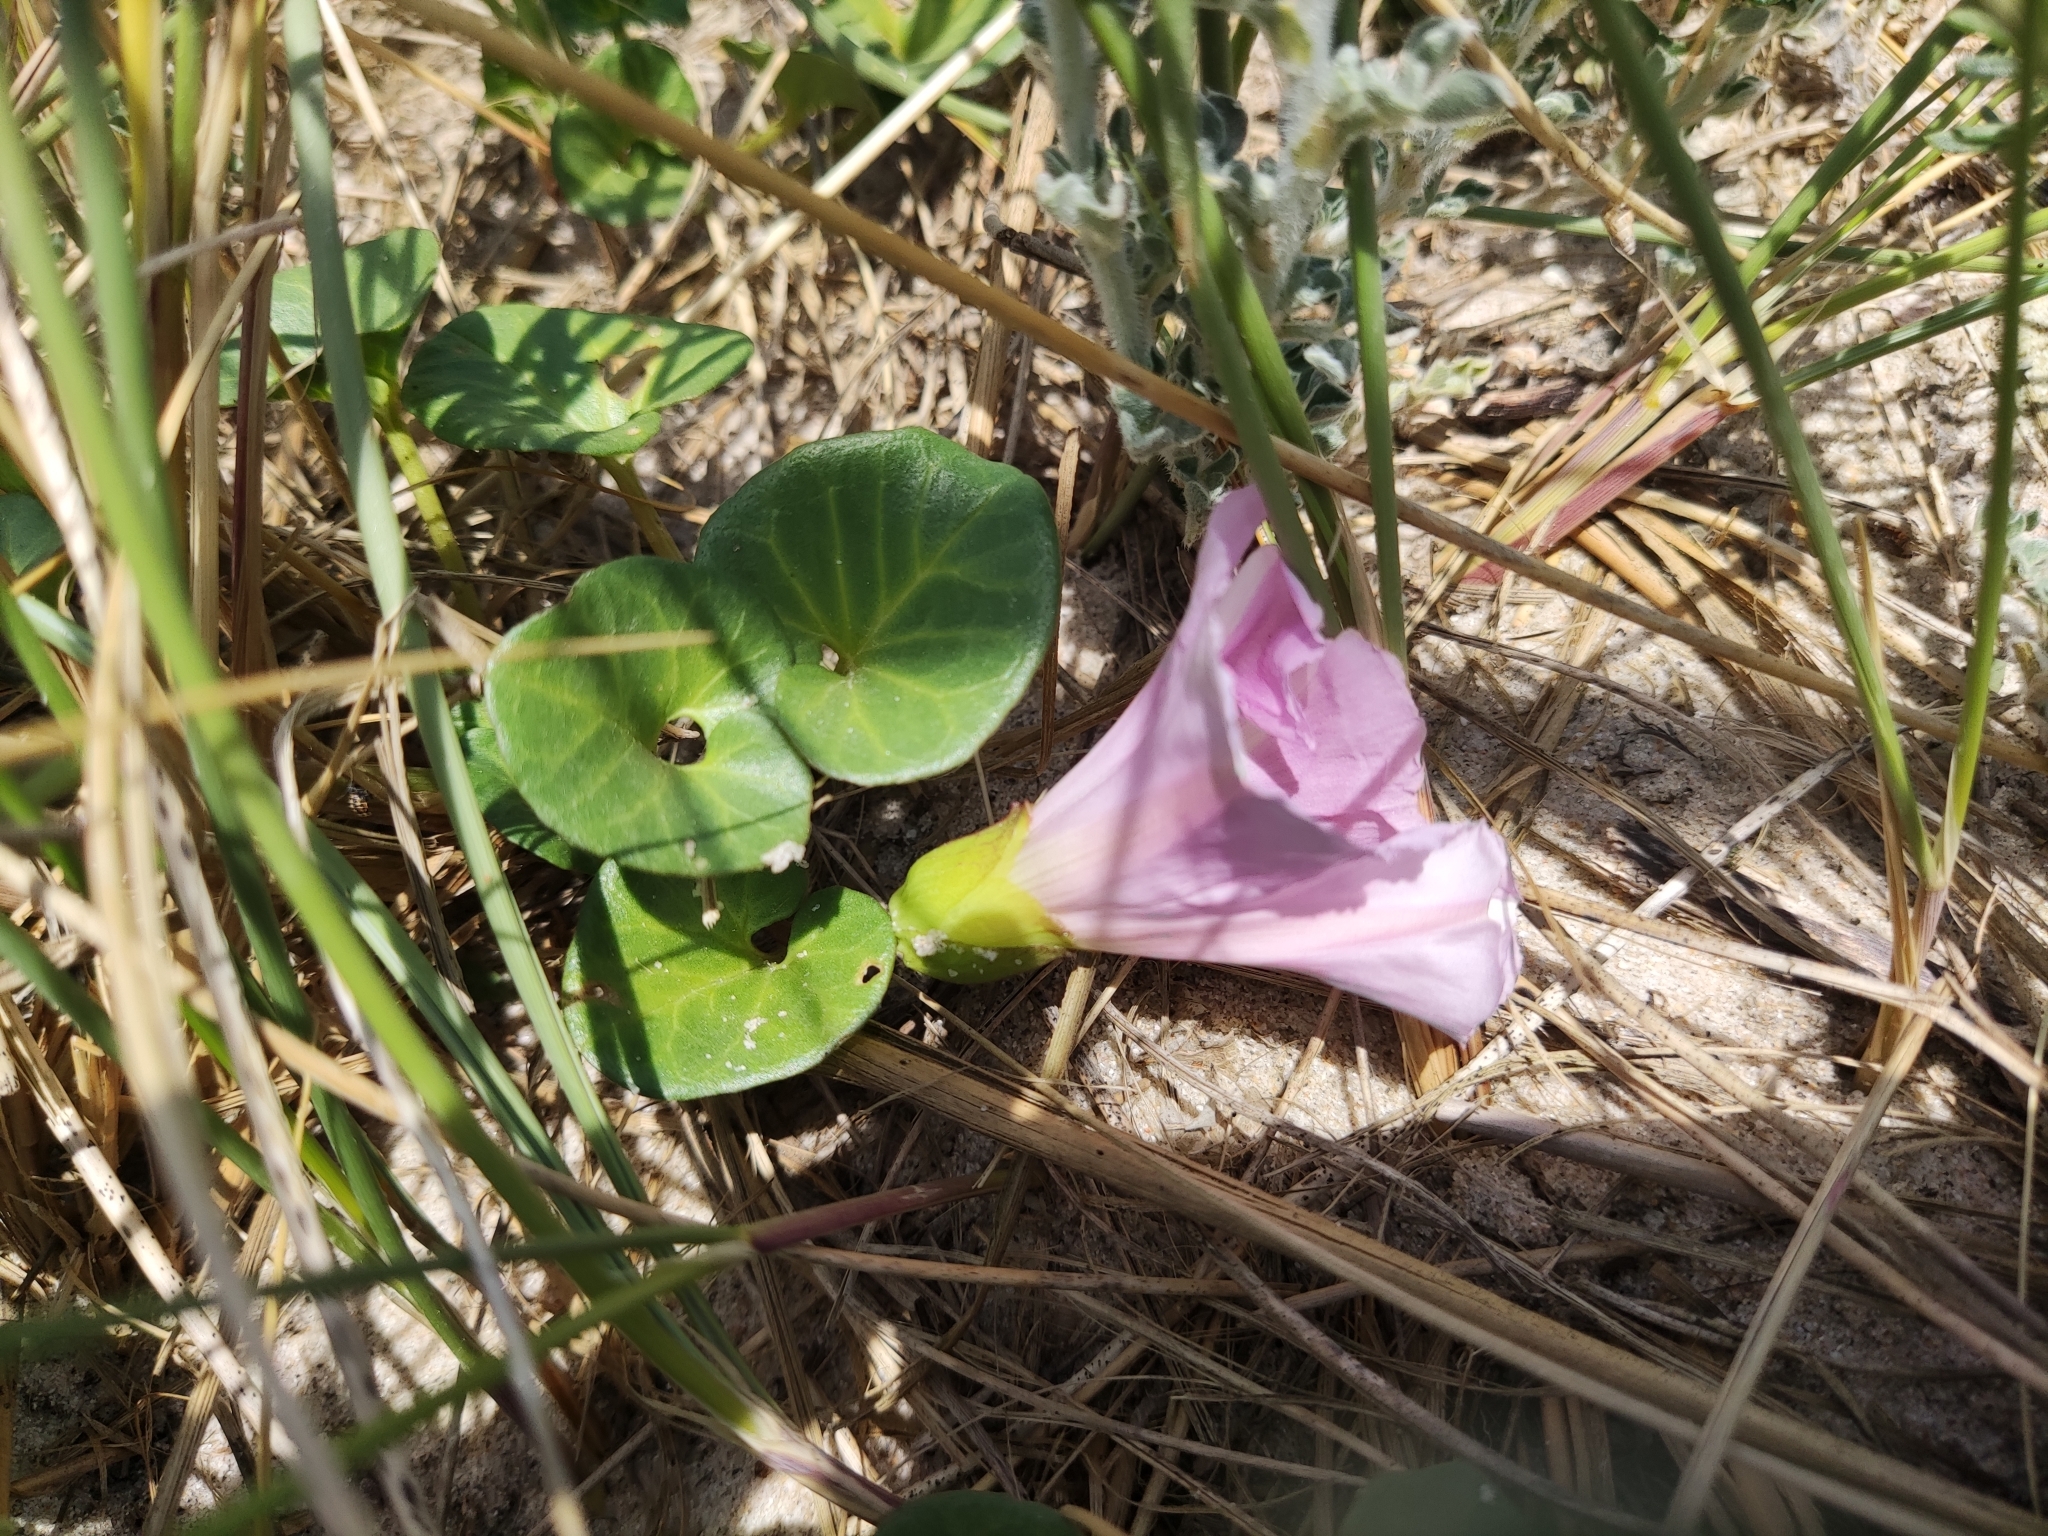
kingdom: Plantae
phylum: Tracheophyta
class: Magnoliopsida
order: Solanales
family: Convolvulaceae
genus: Calystegia
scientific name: Calystegia soldanella
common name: Sea bindweed
